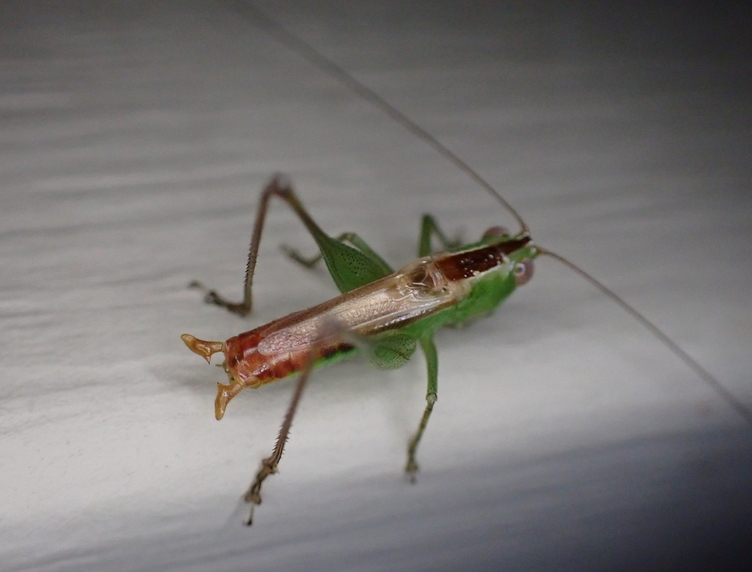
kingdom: Animalia
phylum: Arthropoda
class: Insecta
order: Orthoptera
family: Tettigoniidae
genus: Conocephalus
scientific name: Conocephalus brevipennis
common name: Short-winged meadow katydid
